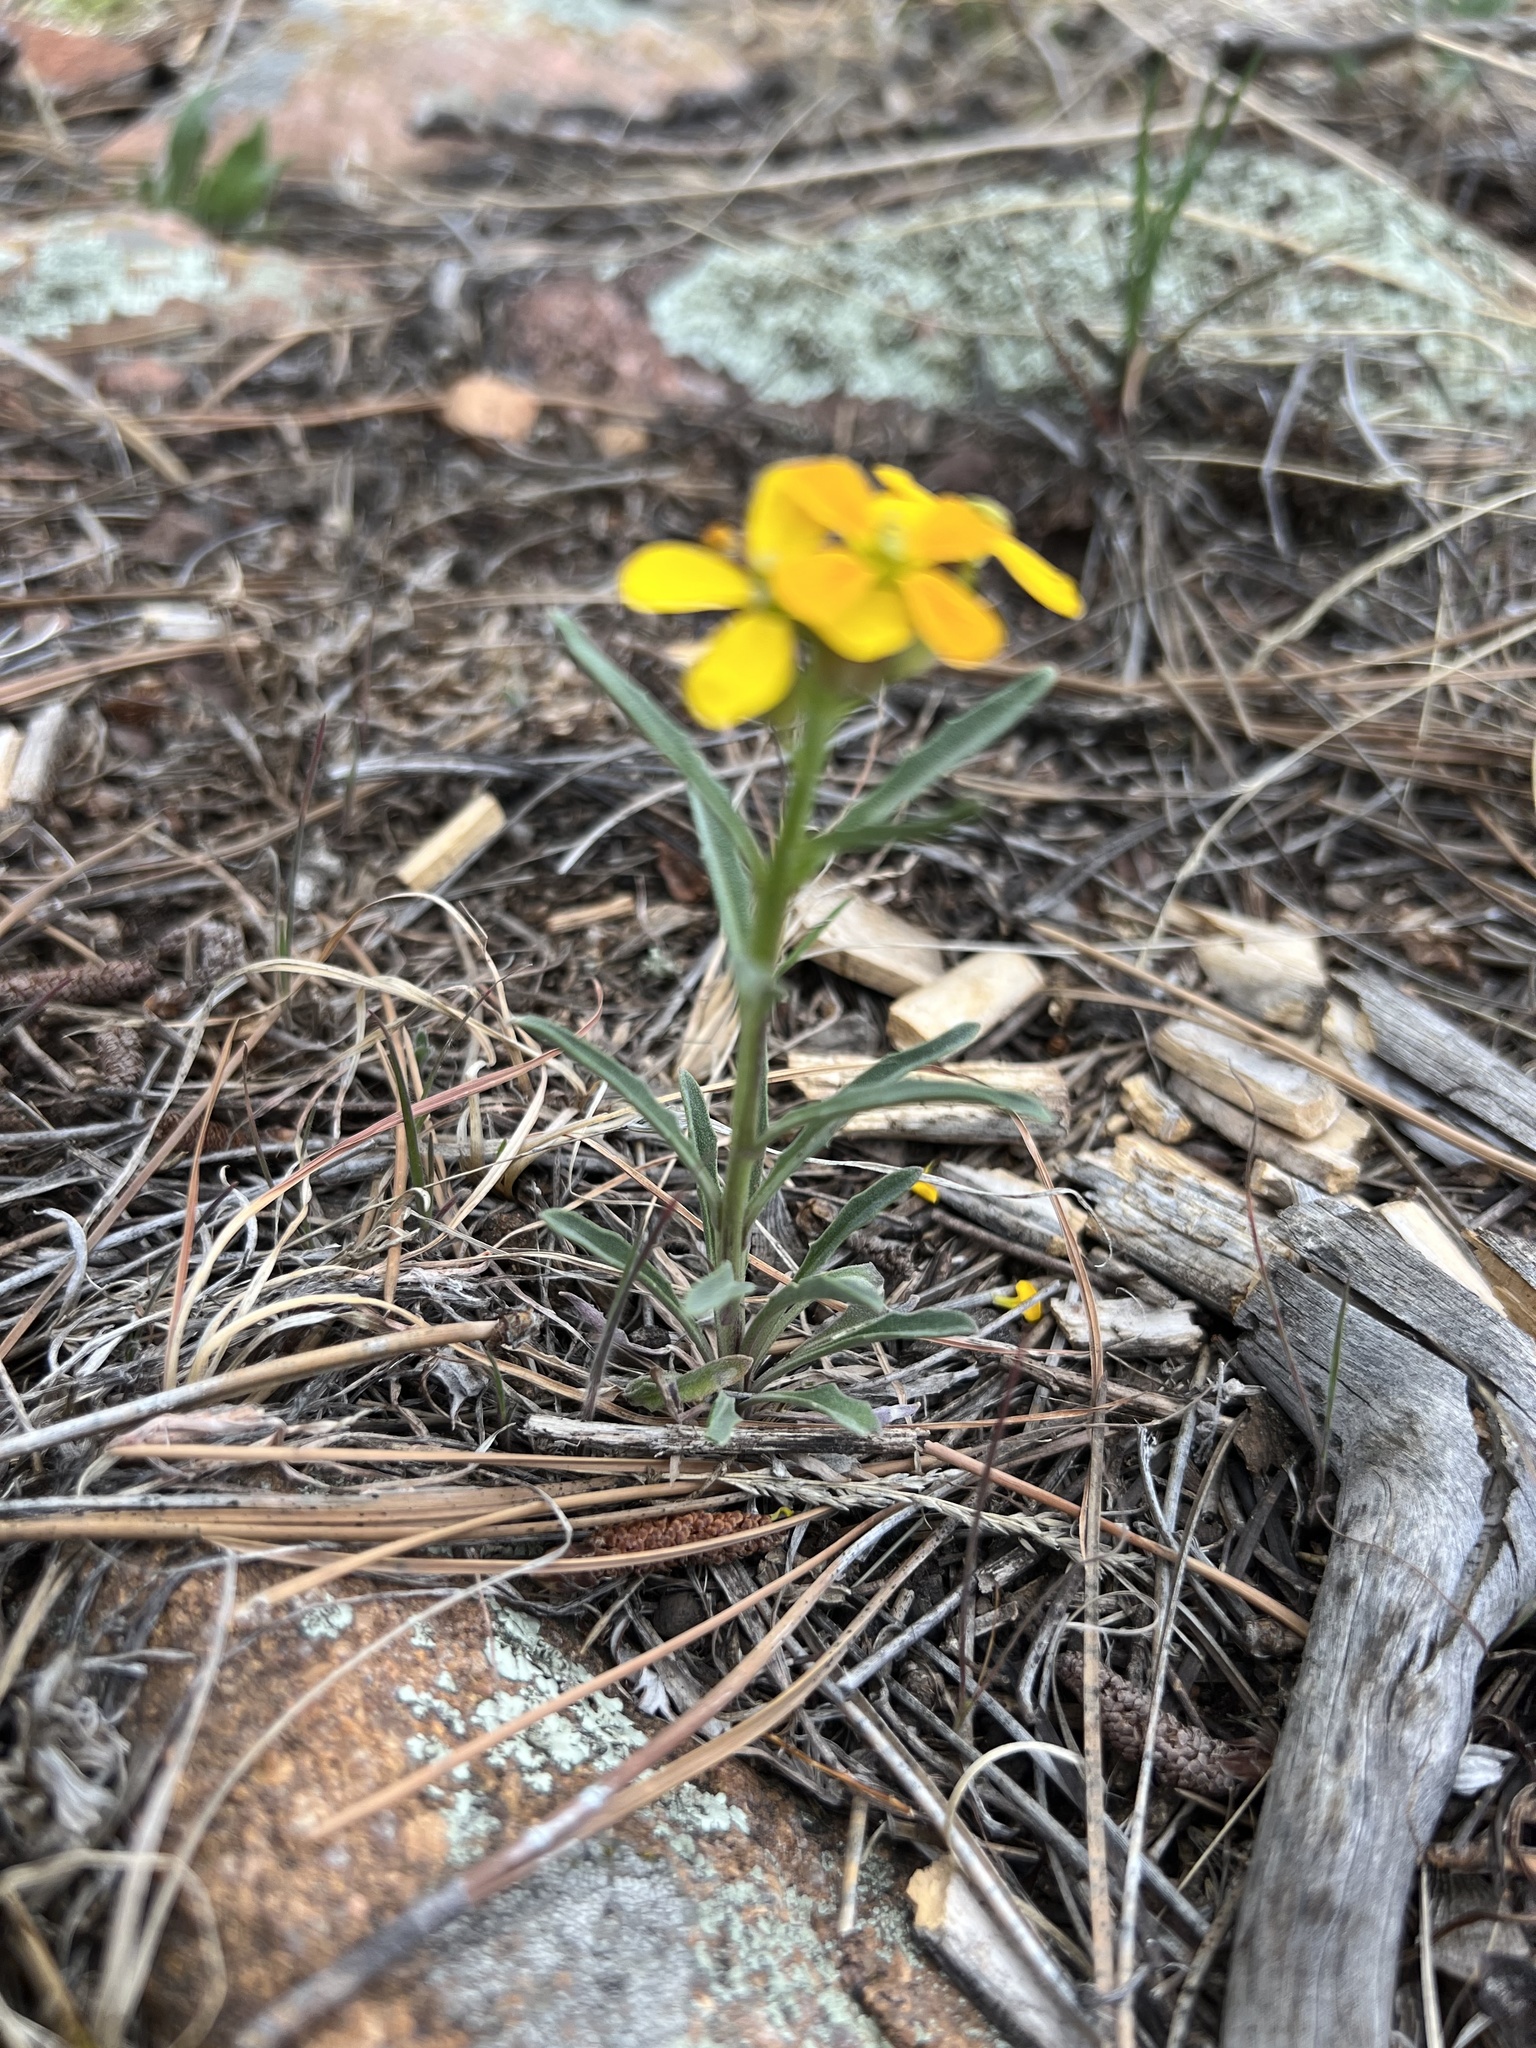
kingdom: Plantae
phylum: Tracheophyta
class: Magnoliopsida
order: Brassicales
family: Brassicaceae
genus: Erysimum
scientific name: Erysimum capitatum
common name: Western wallflower
